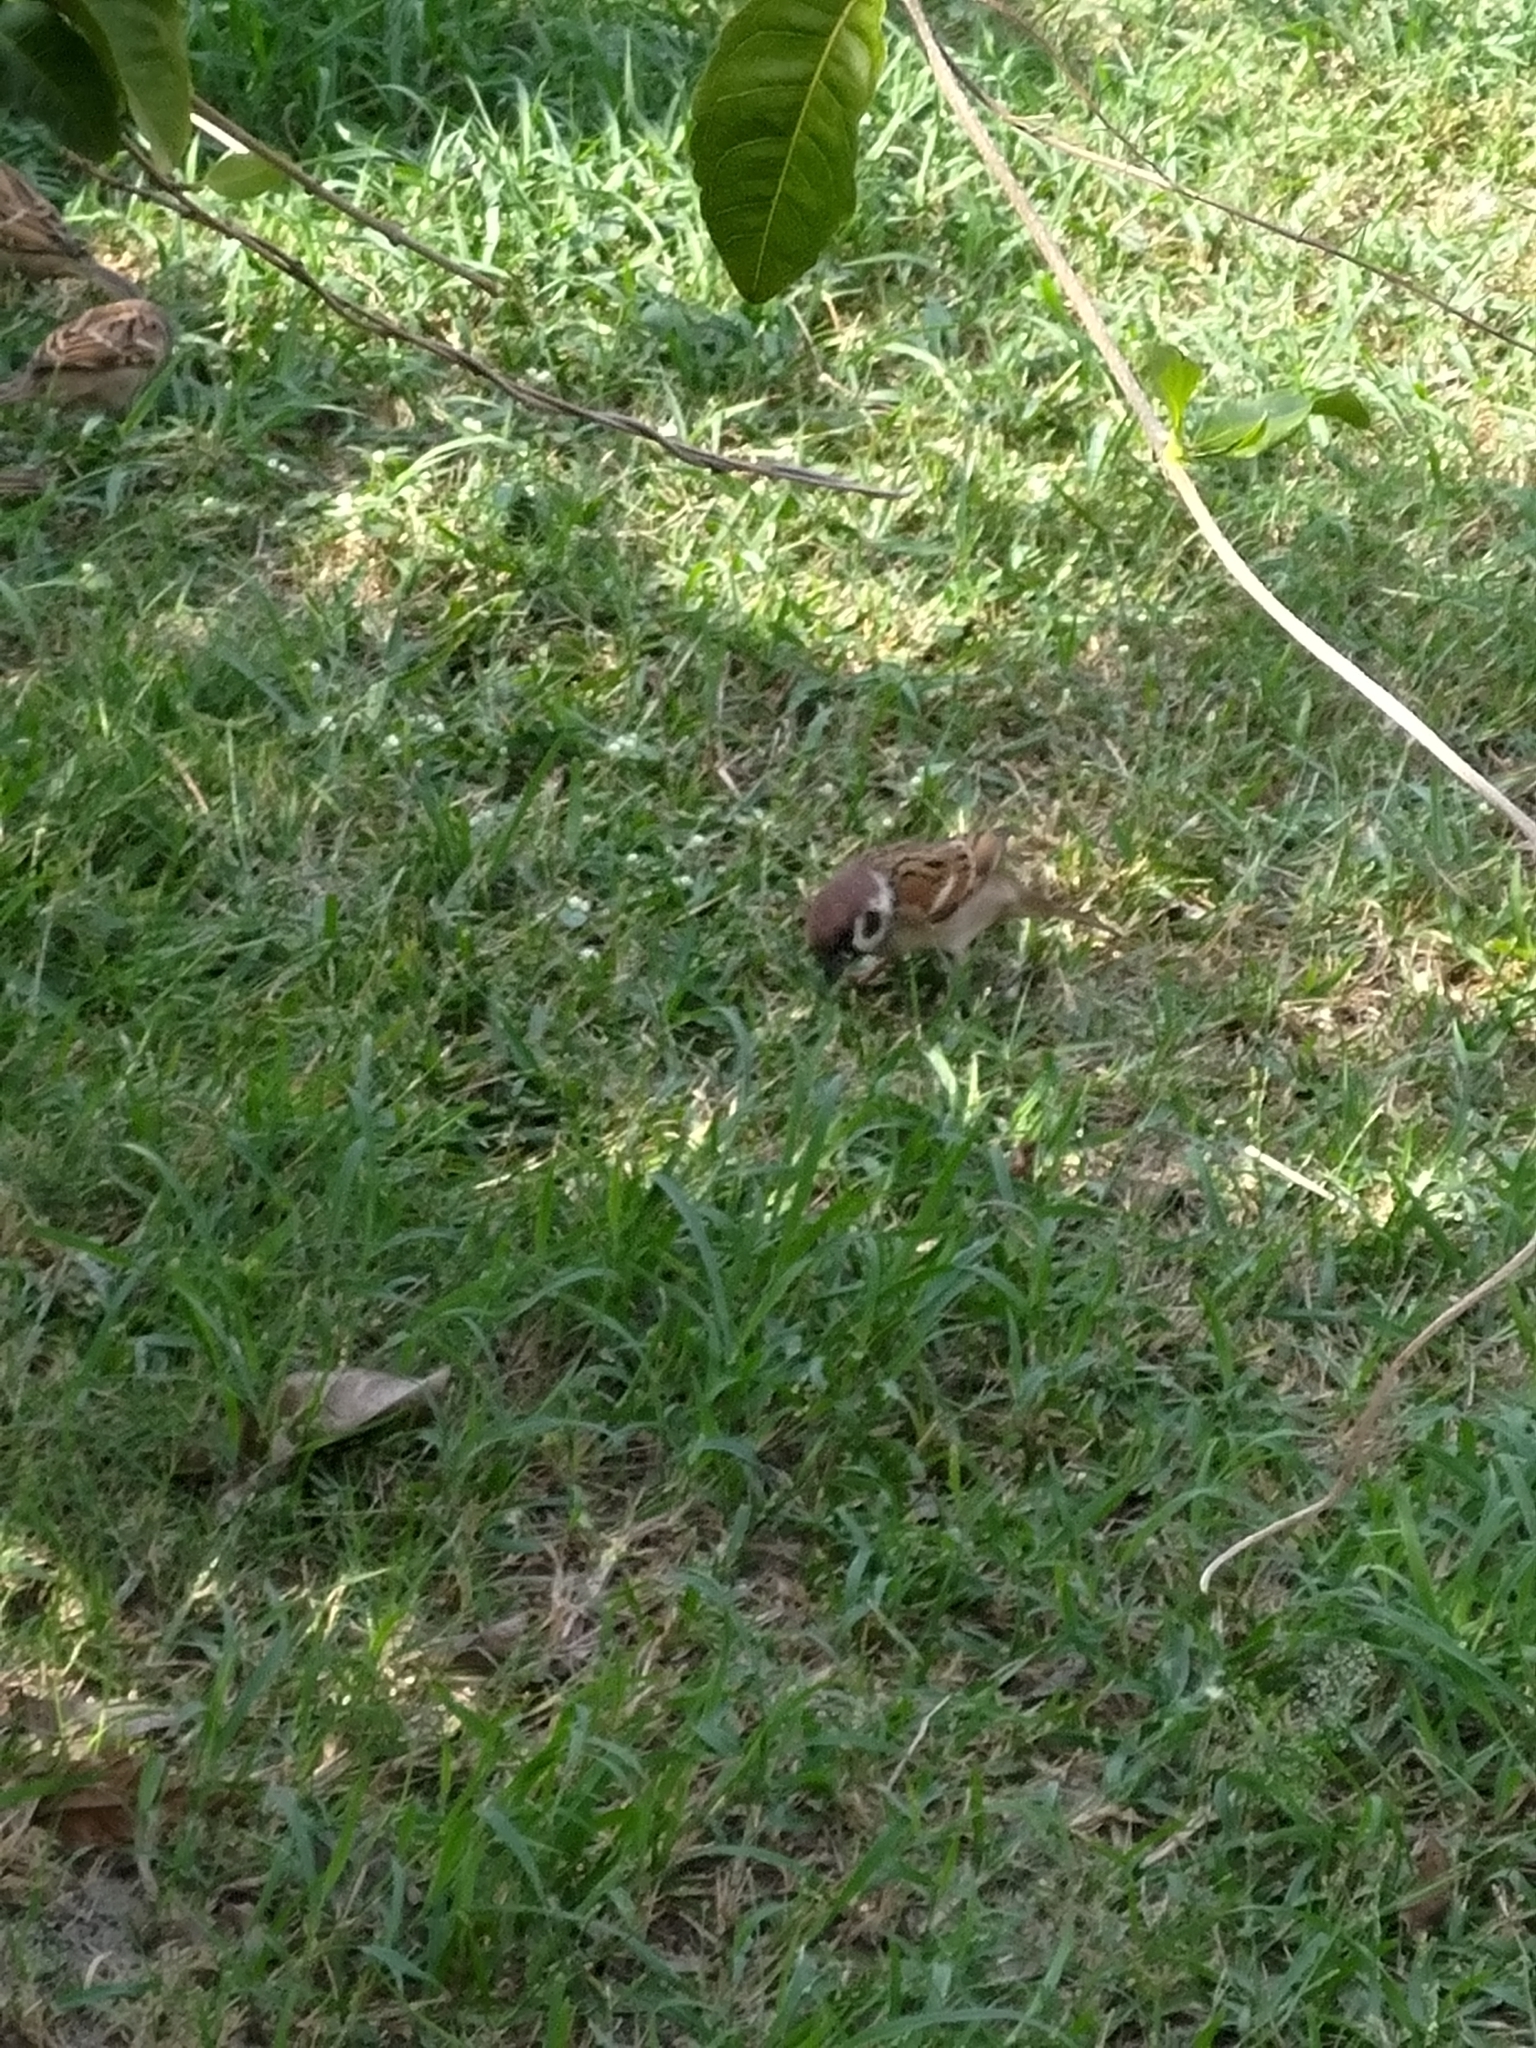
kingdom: Animalia
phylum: Chordata
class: Aves
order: Passeriformes
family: Passeridae
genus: Passer
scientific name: Passer montanus
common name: Eurasian tree sparrow
